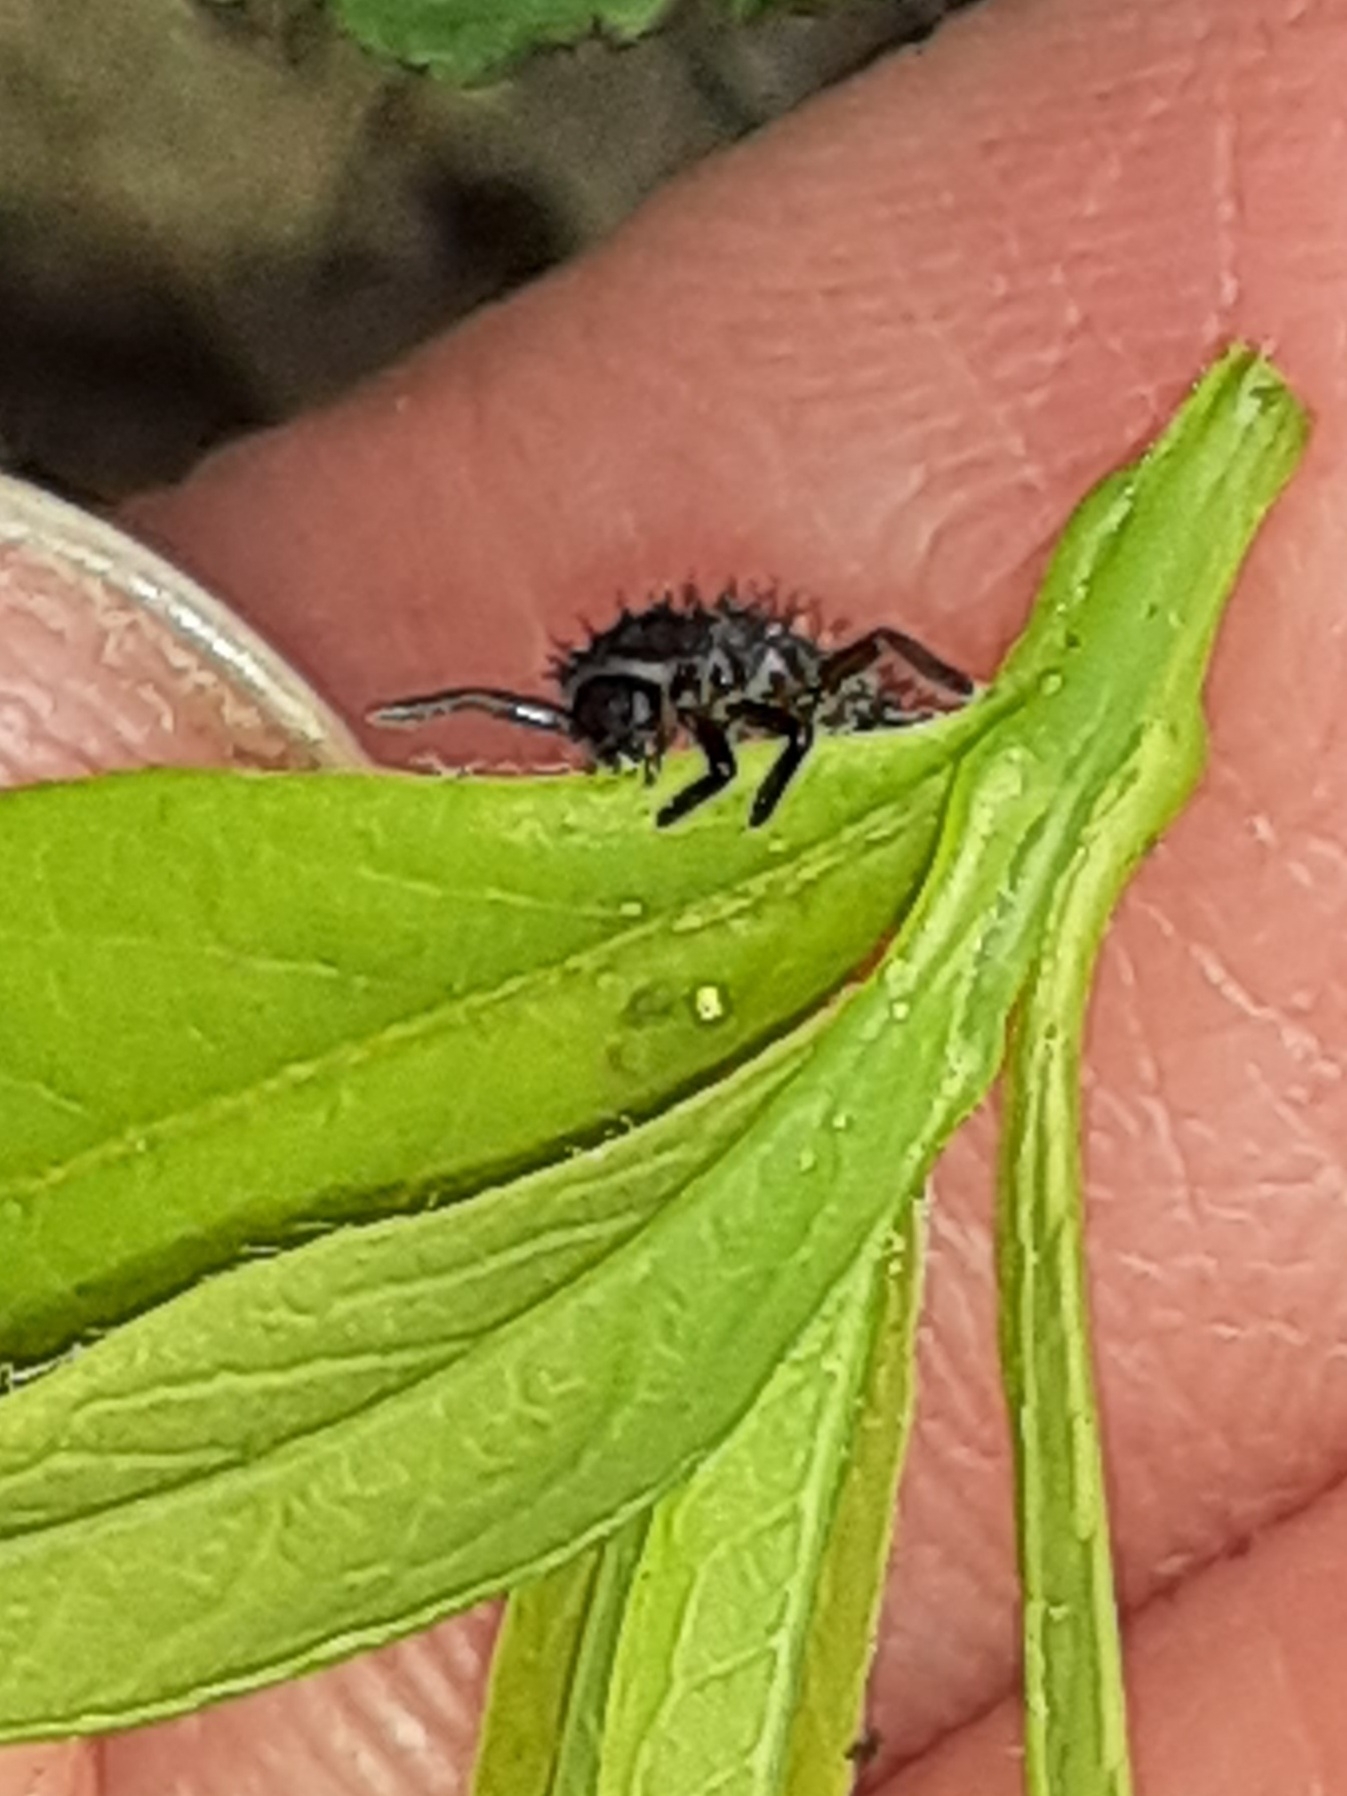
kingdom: Animalia
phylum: Arthropoda
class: Insecta
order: Coleoptera
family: Coccinellidae
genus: Harmonia
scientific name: Harmonia axyridis
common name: Harlequin ladybird
